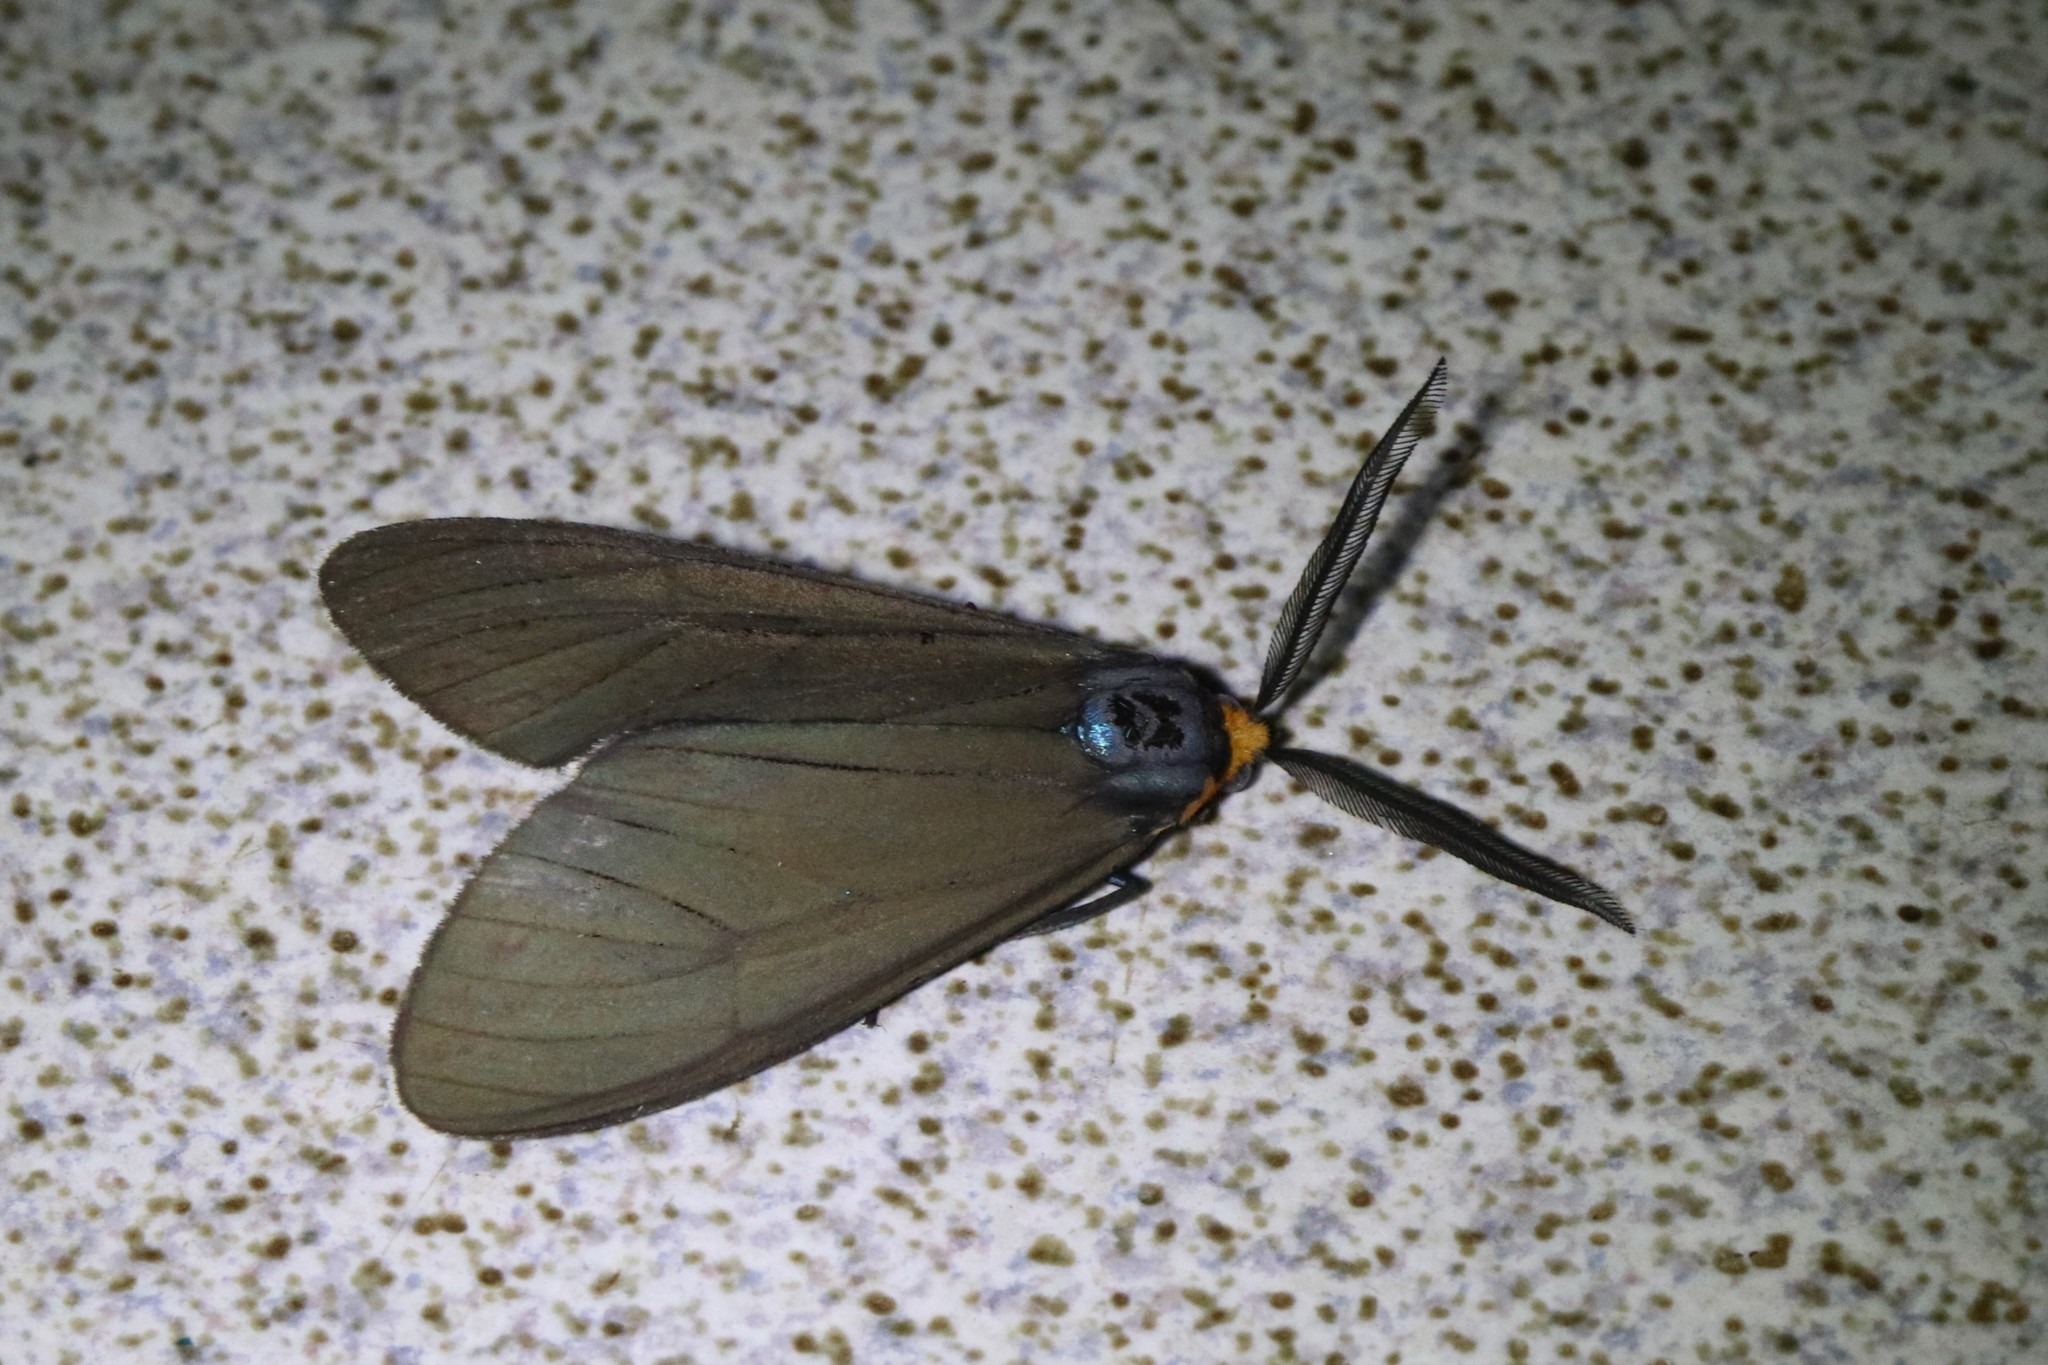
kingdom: Animalia
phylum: Arthropoda
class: Insecta
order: Lepidoptera
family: Erebidae
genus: Ctenucha
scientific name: Ctenucha virginica
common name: Virginia ctenucha moth
